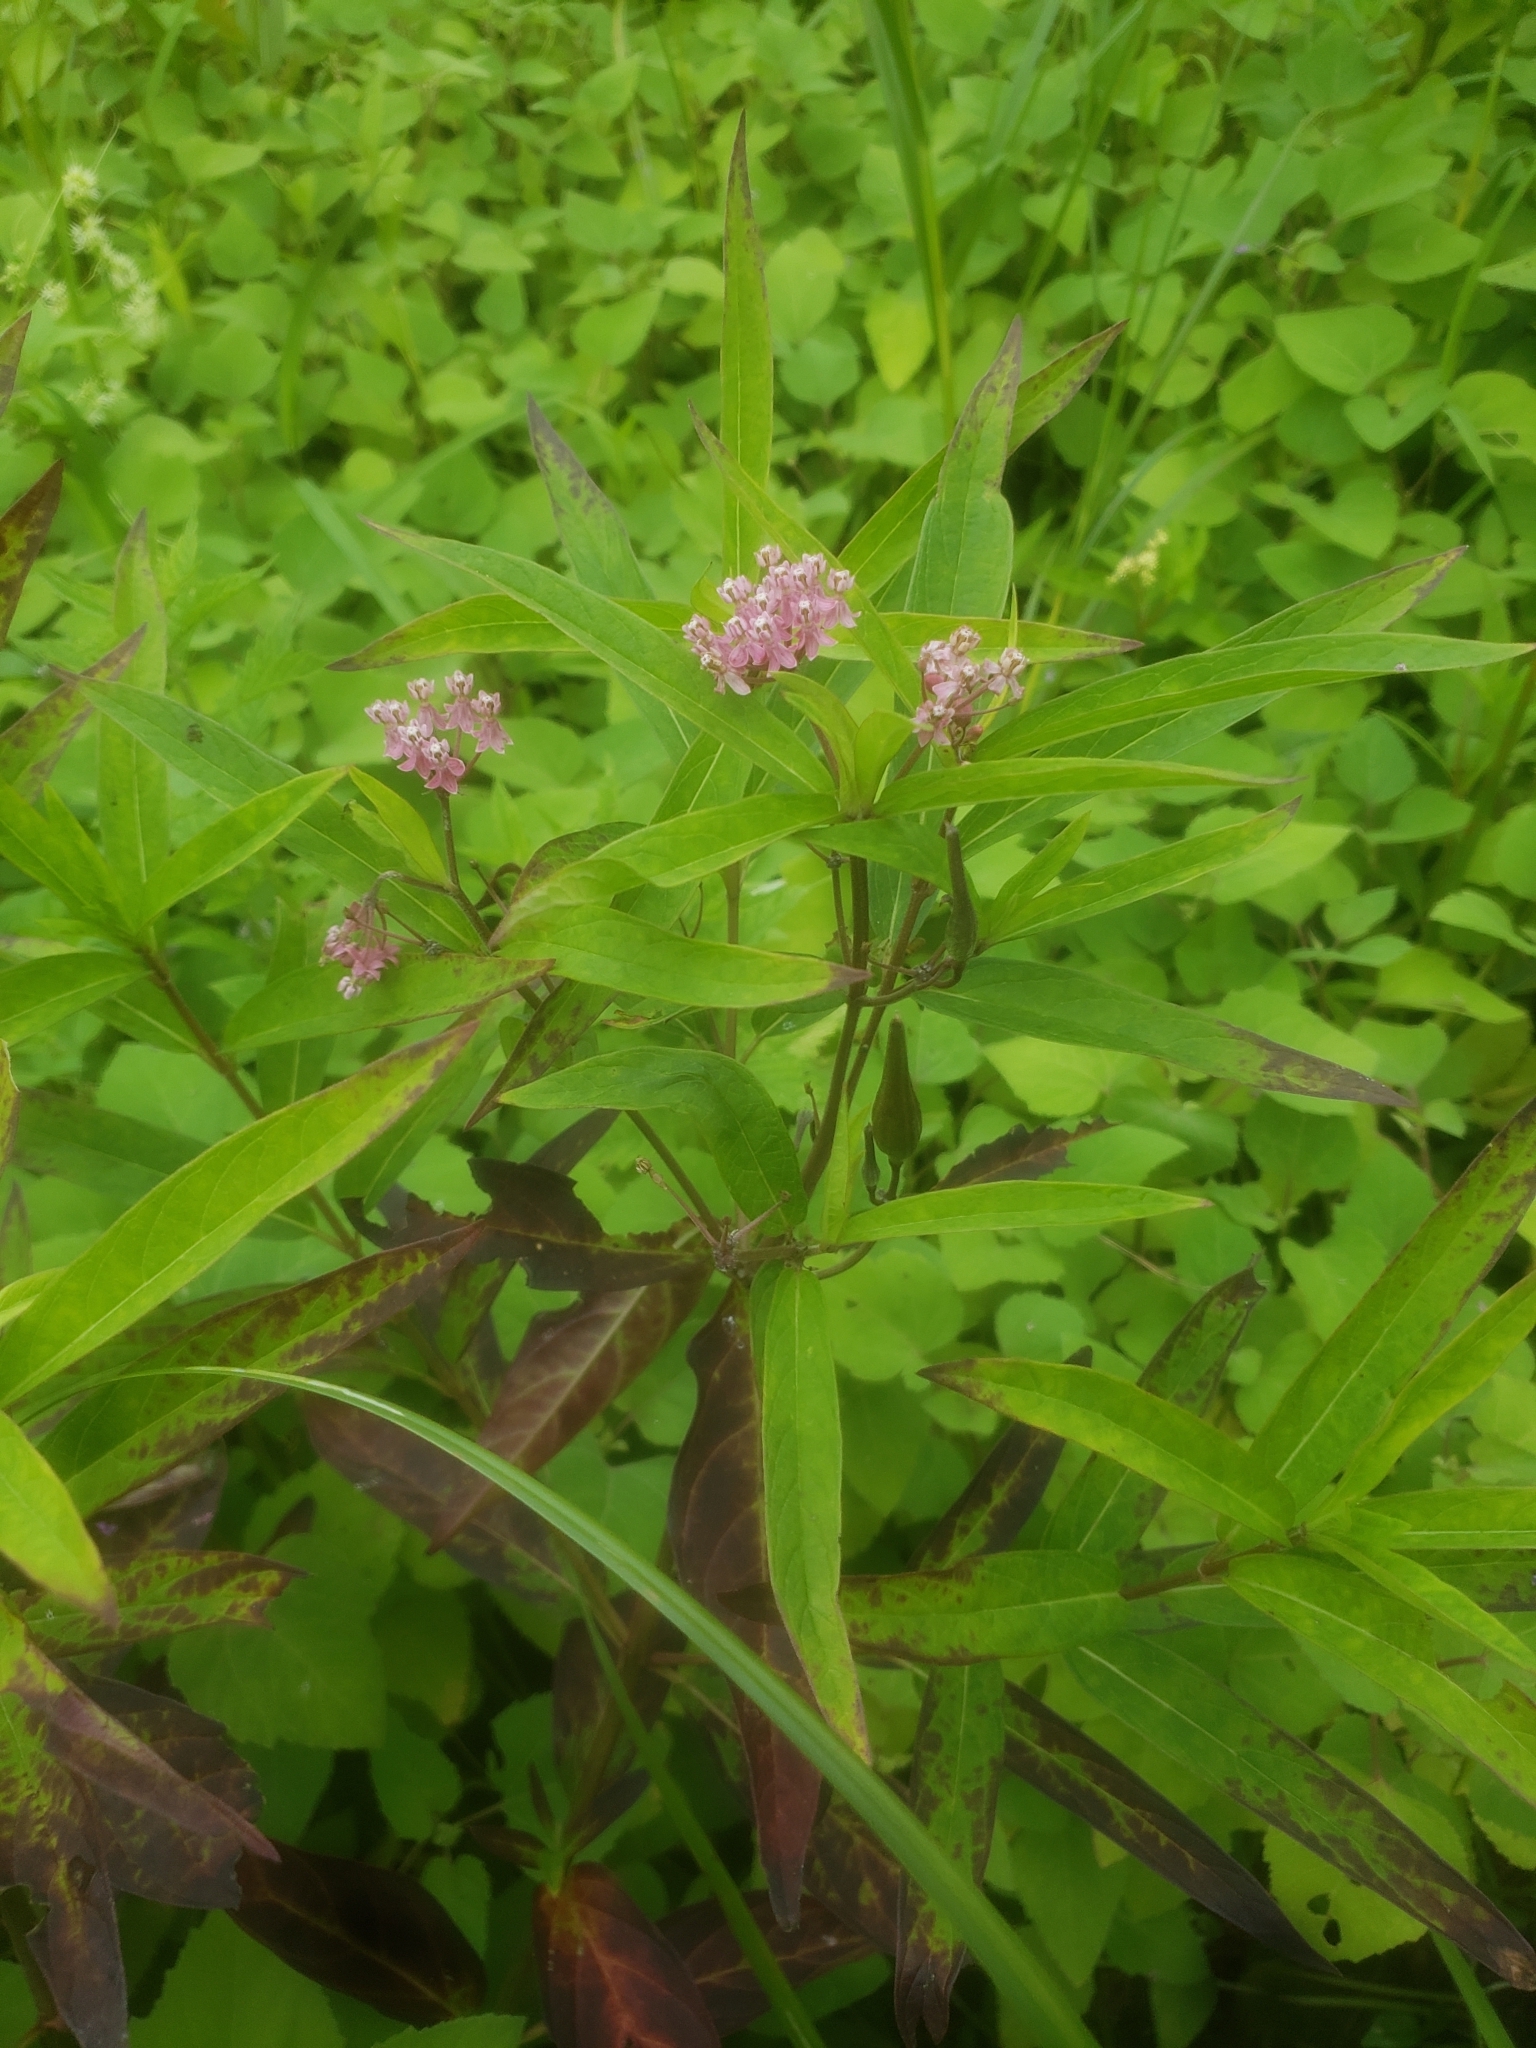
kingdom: Plantae
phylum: Tracheophyta
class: Magnoliopsida
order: Gentianales
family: Apocynaceae
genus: Asclepias
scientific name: Asclepias incarnata
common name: Swamp milkweed
